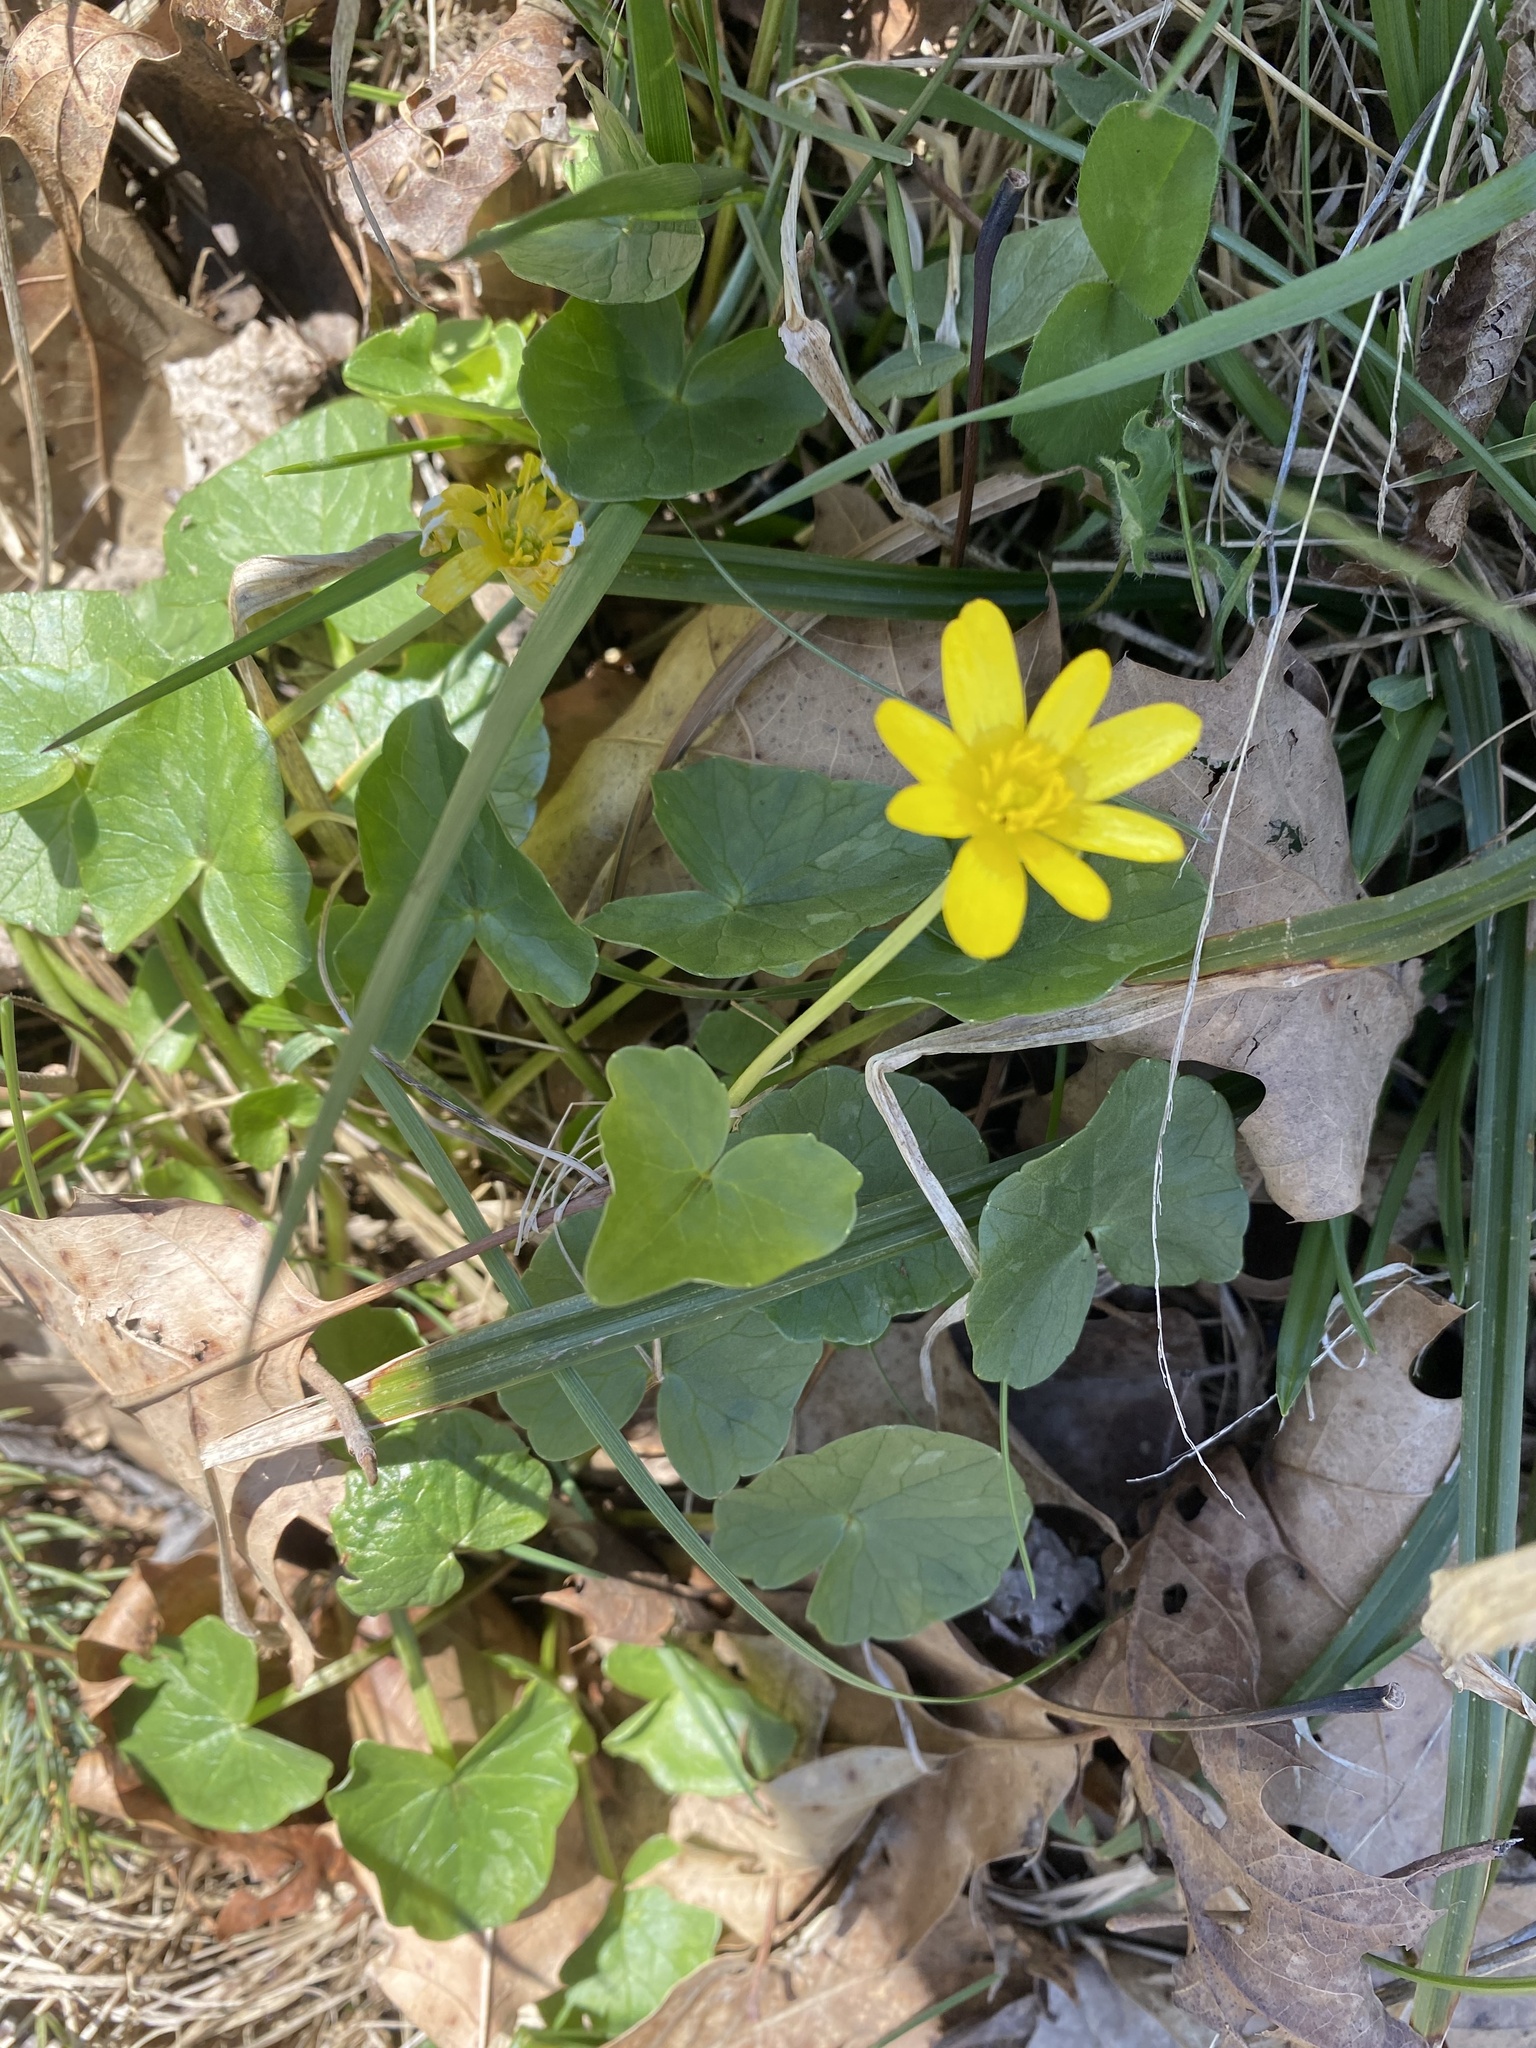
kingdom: Plantae
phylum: Tracheophyta
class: Magnoliopsida
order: Ranunculales
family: Ranunculaceae
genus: Ficaria
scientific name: Ficaria verna
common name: Lesser celandine
